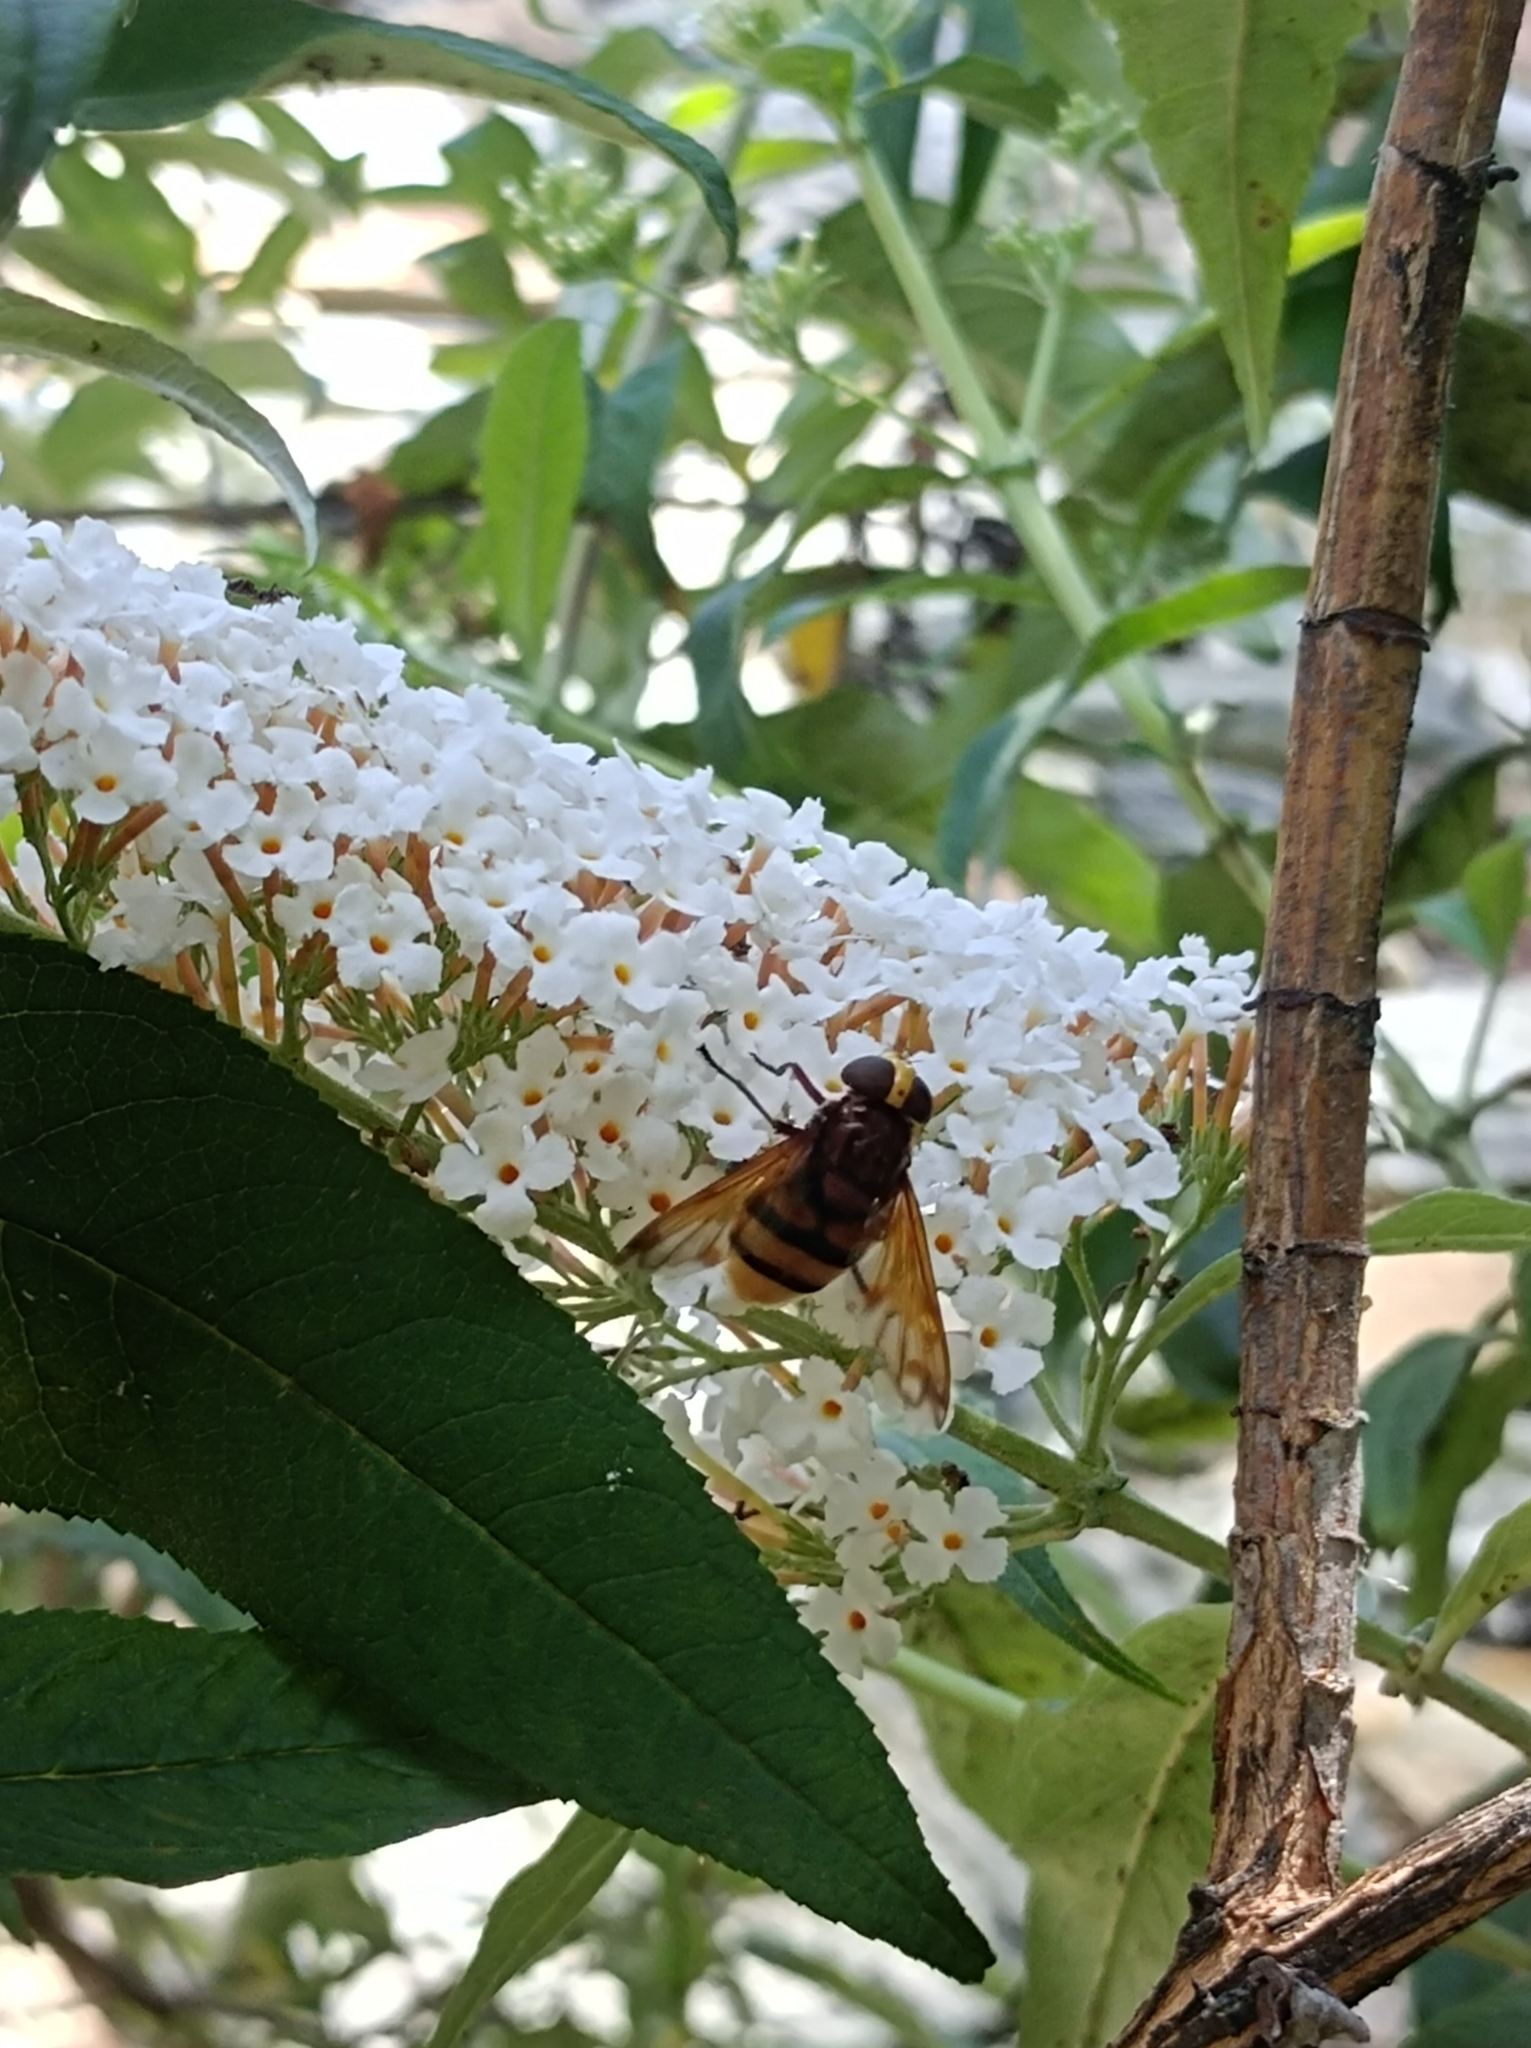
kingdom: Animalia
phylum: Arthropoda
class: Insecta
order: Diptera
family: Syrphidae
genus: Volucella
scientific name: Volucella zonaria
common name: Hornet hoverfly
